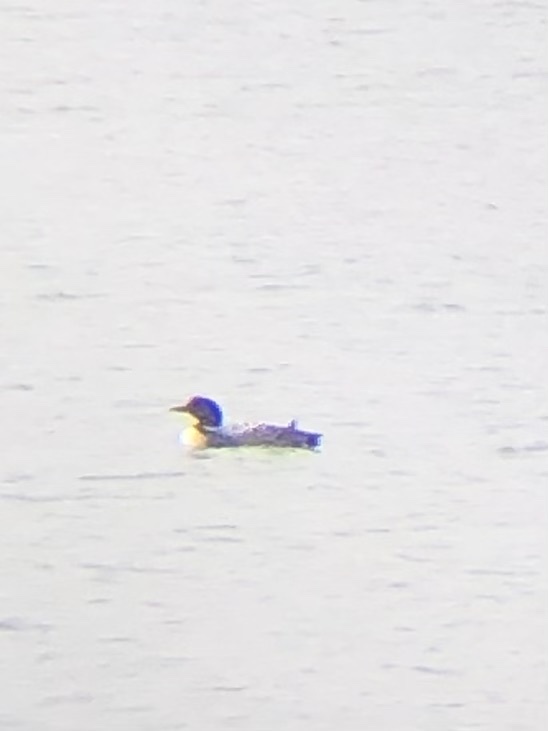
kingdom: Animalia
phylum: Chordata
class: Aves
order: Gaviiformes
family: Gaviidae
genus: Gavia
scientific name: Gavia immer
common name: Common loon
